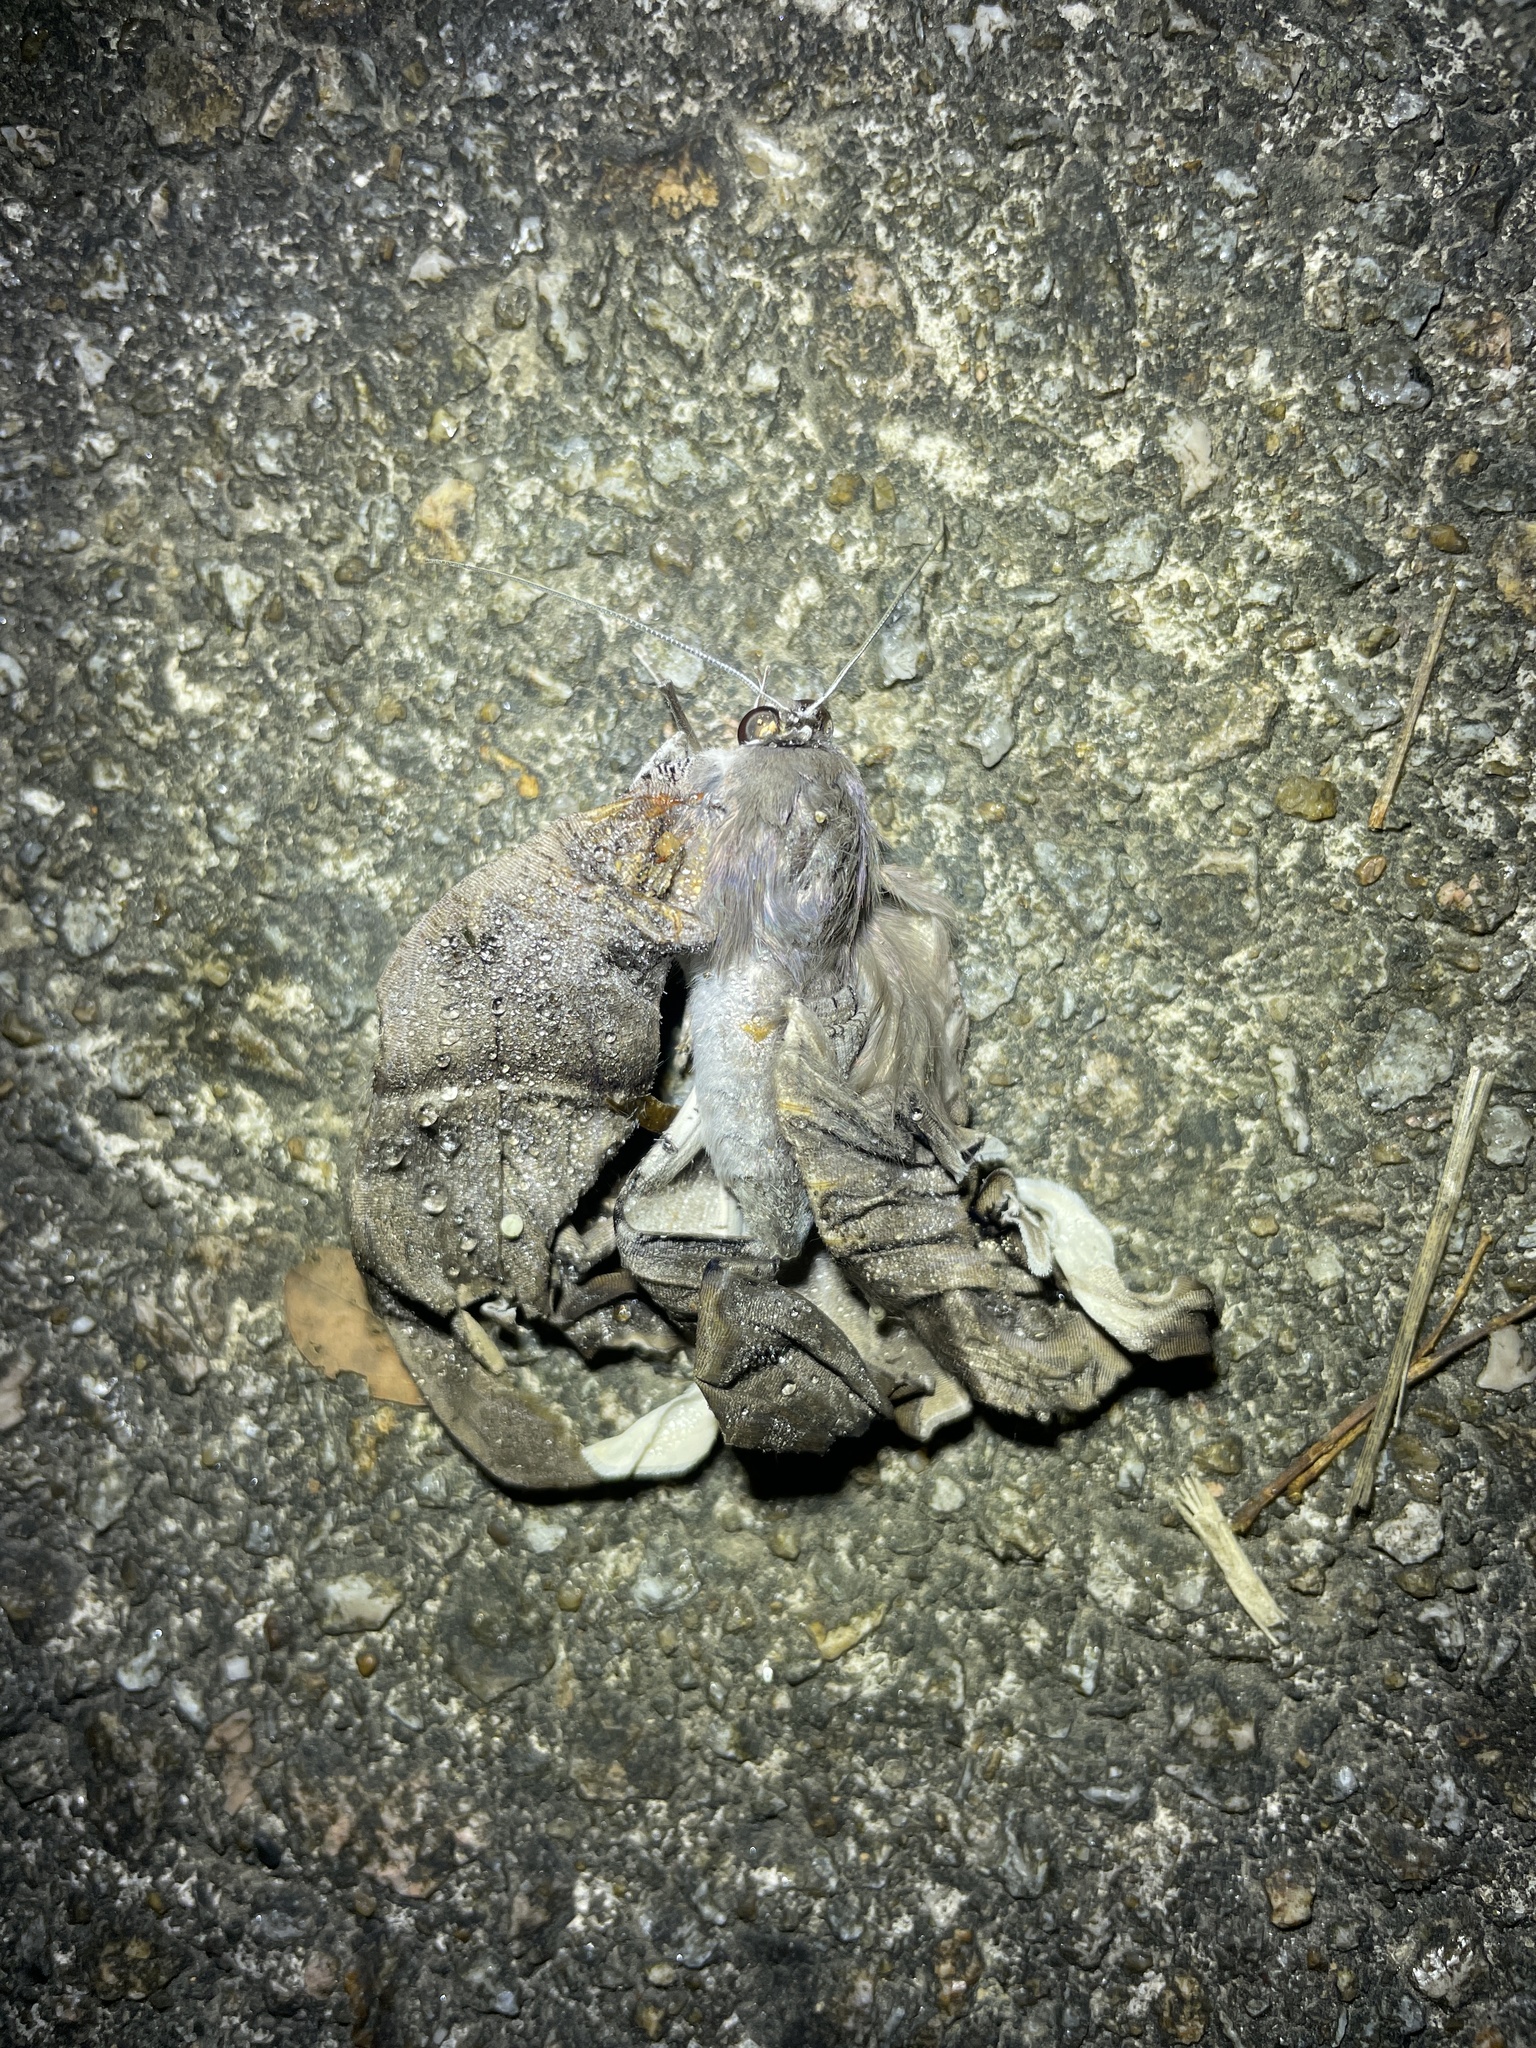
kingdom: Animalia
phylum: Arthropoda
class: Insecta
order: Lepidoptera
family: Uraniidae
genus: Lyssa
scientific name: Lyssa zampa
